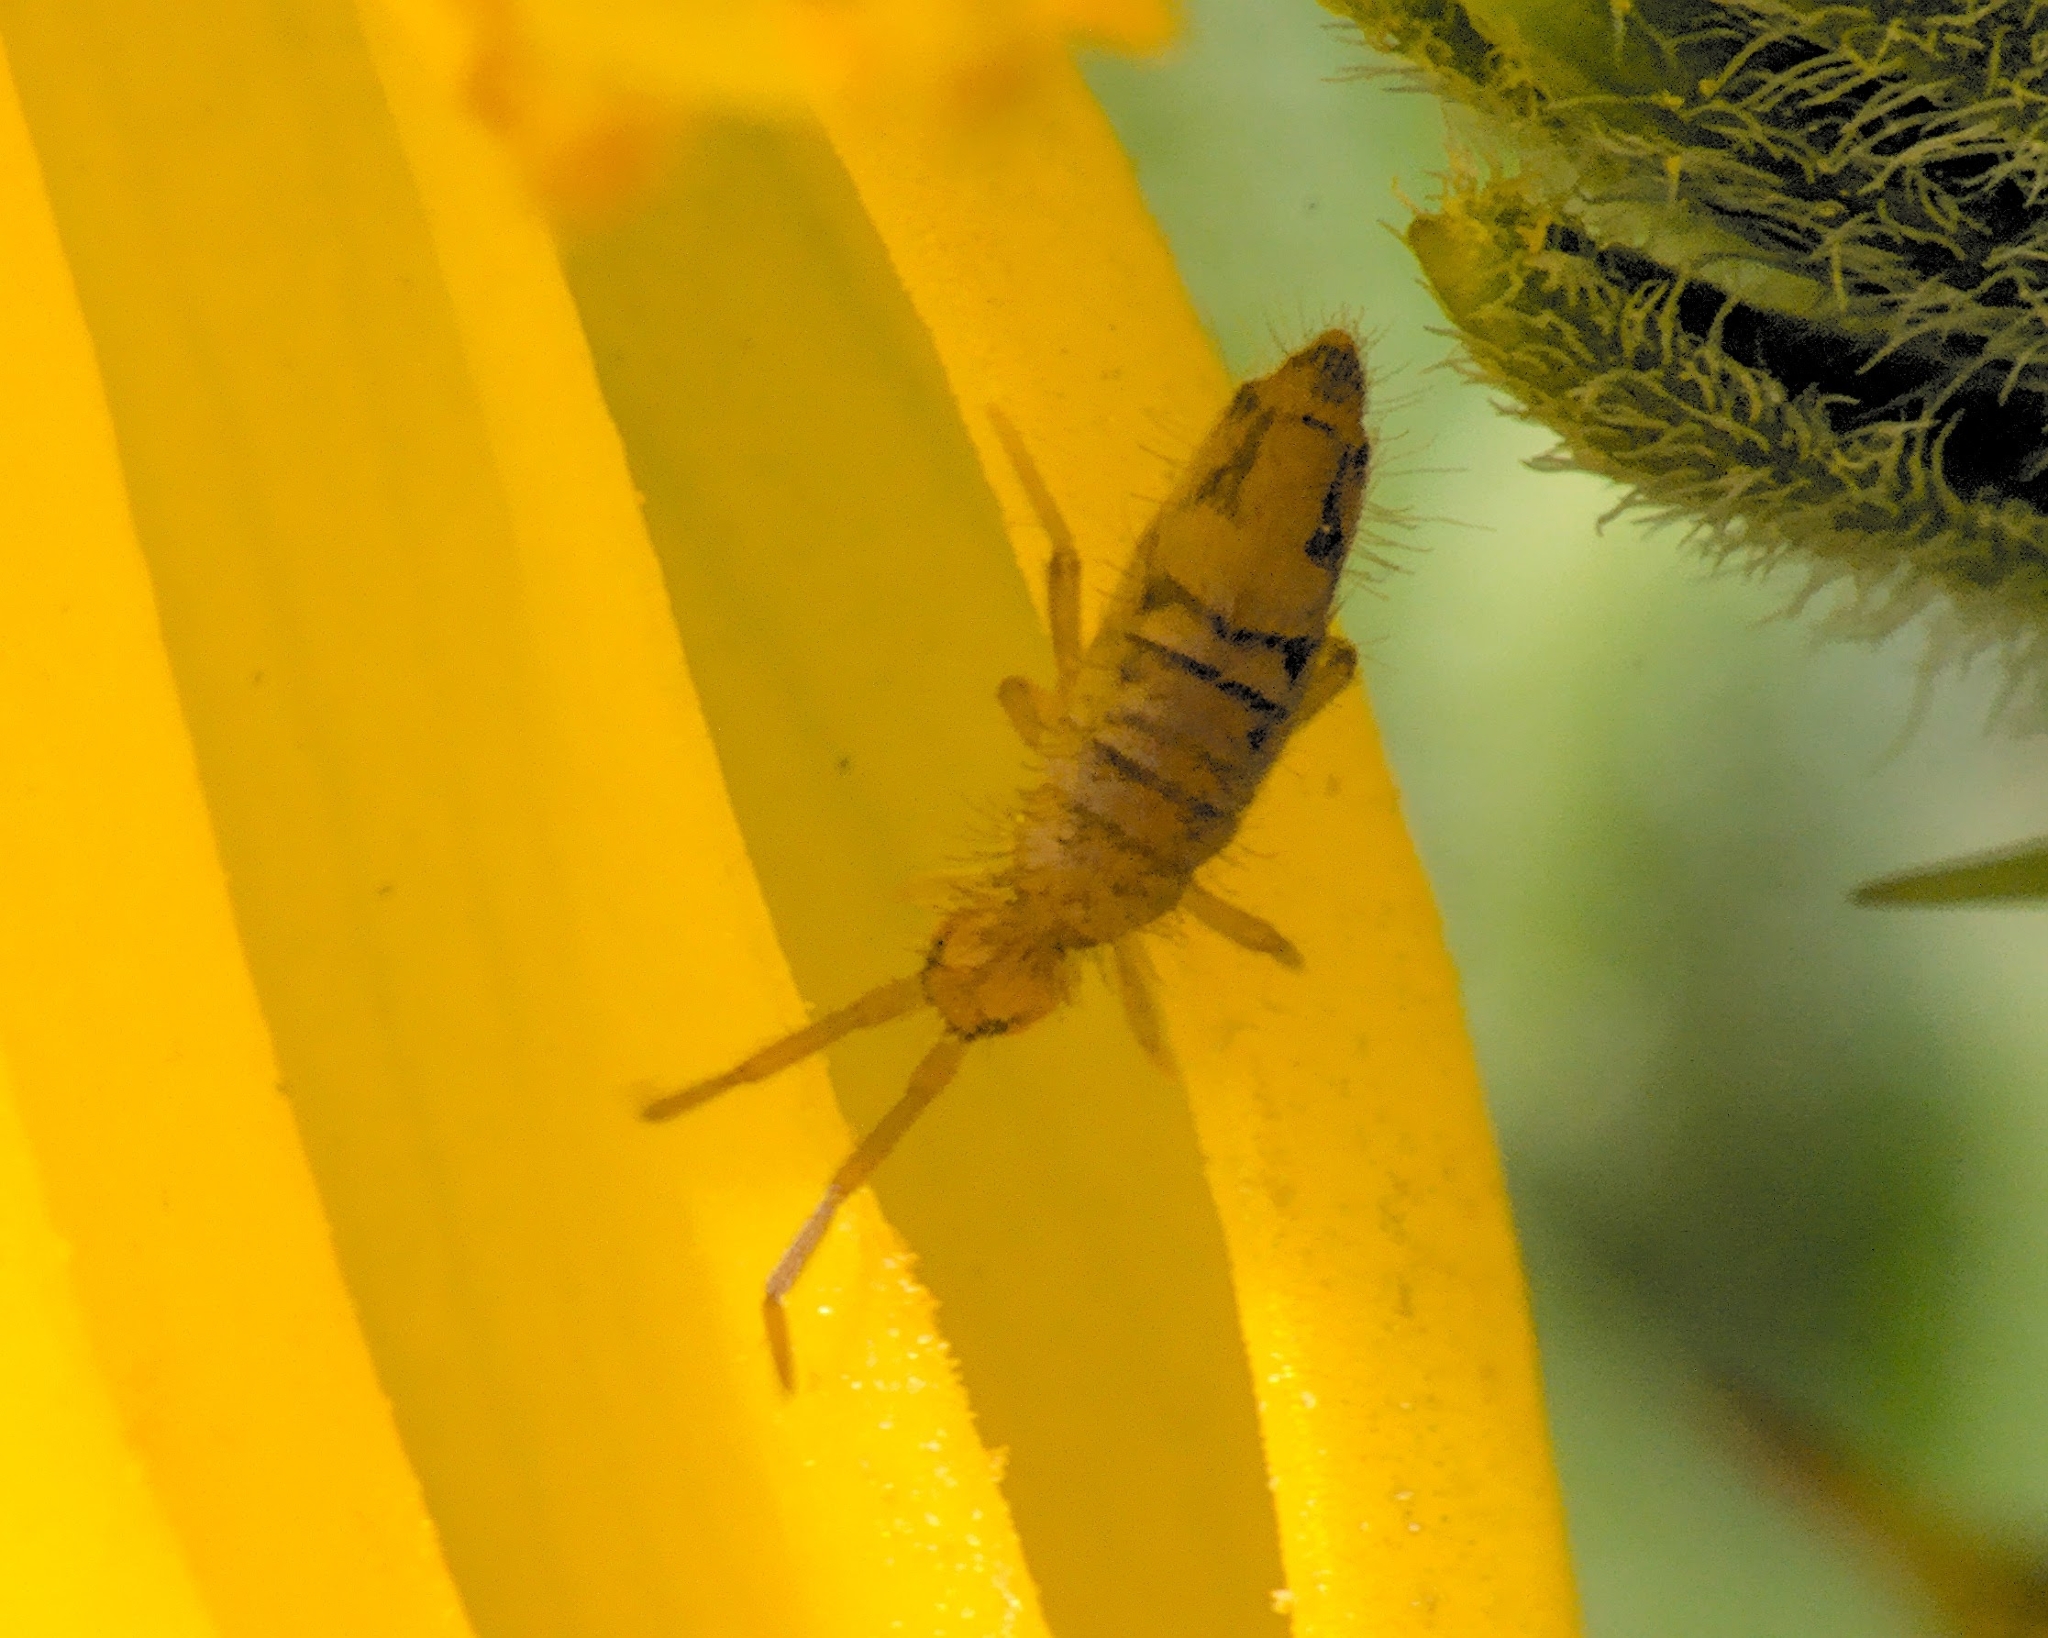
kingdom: Animalia
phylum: Arthropoda
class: Collembola
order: Entomobryomorpha
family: Entomobryidae
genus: Entomobrya
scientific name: Entomobrya nivalis
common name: Cosmopolitan springtail
